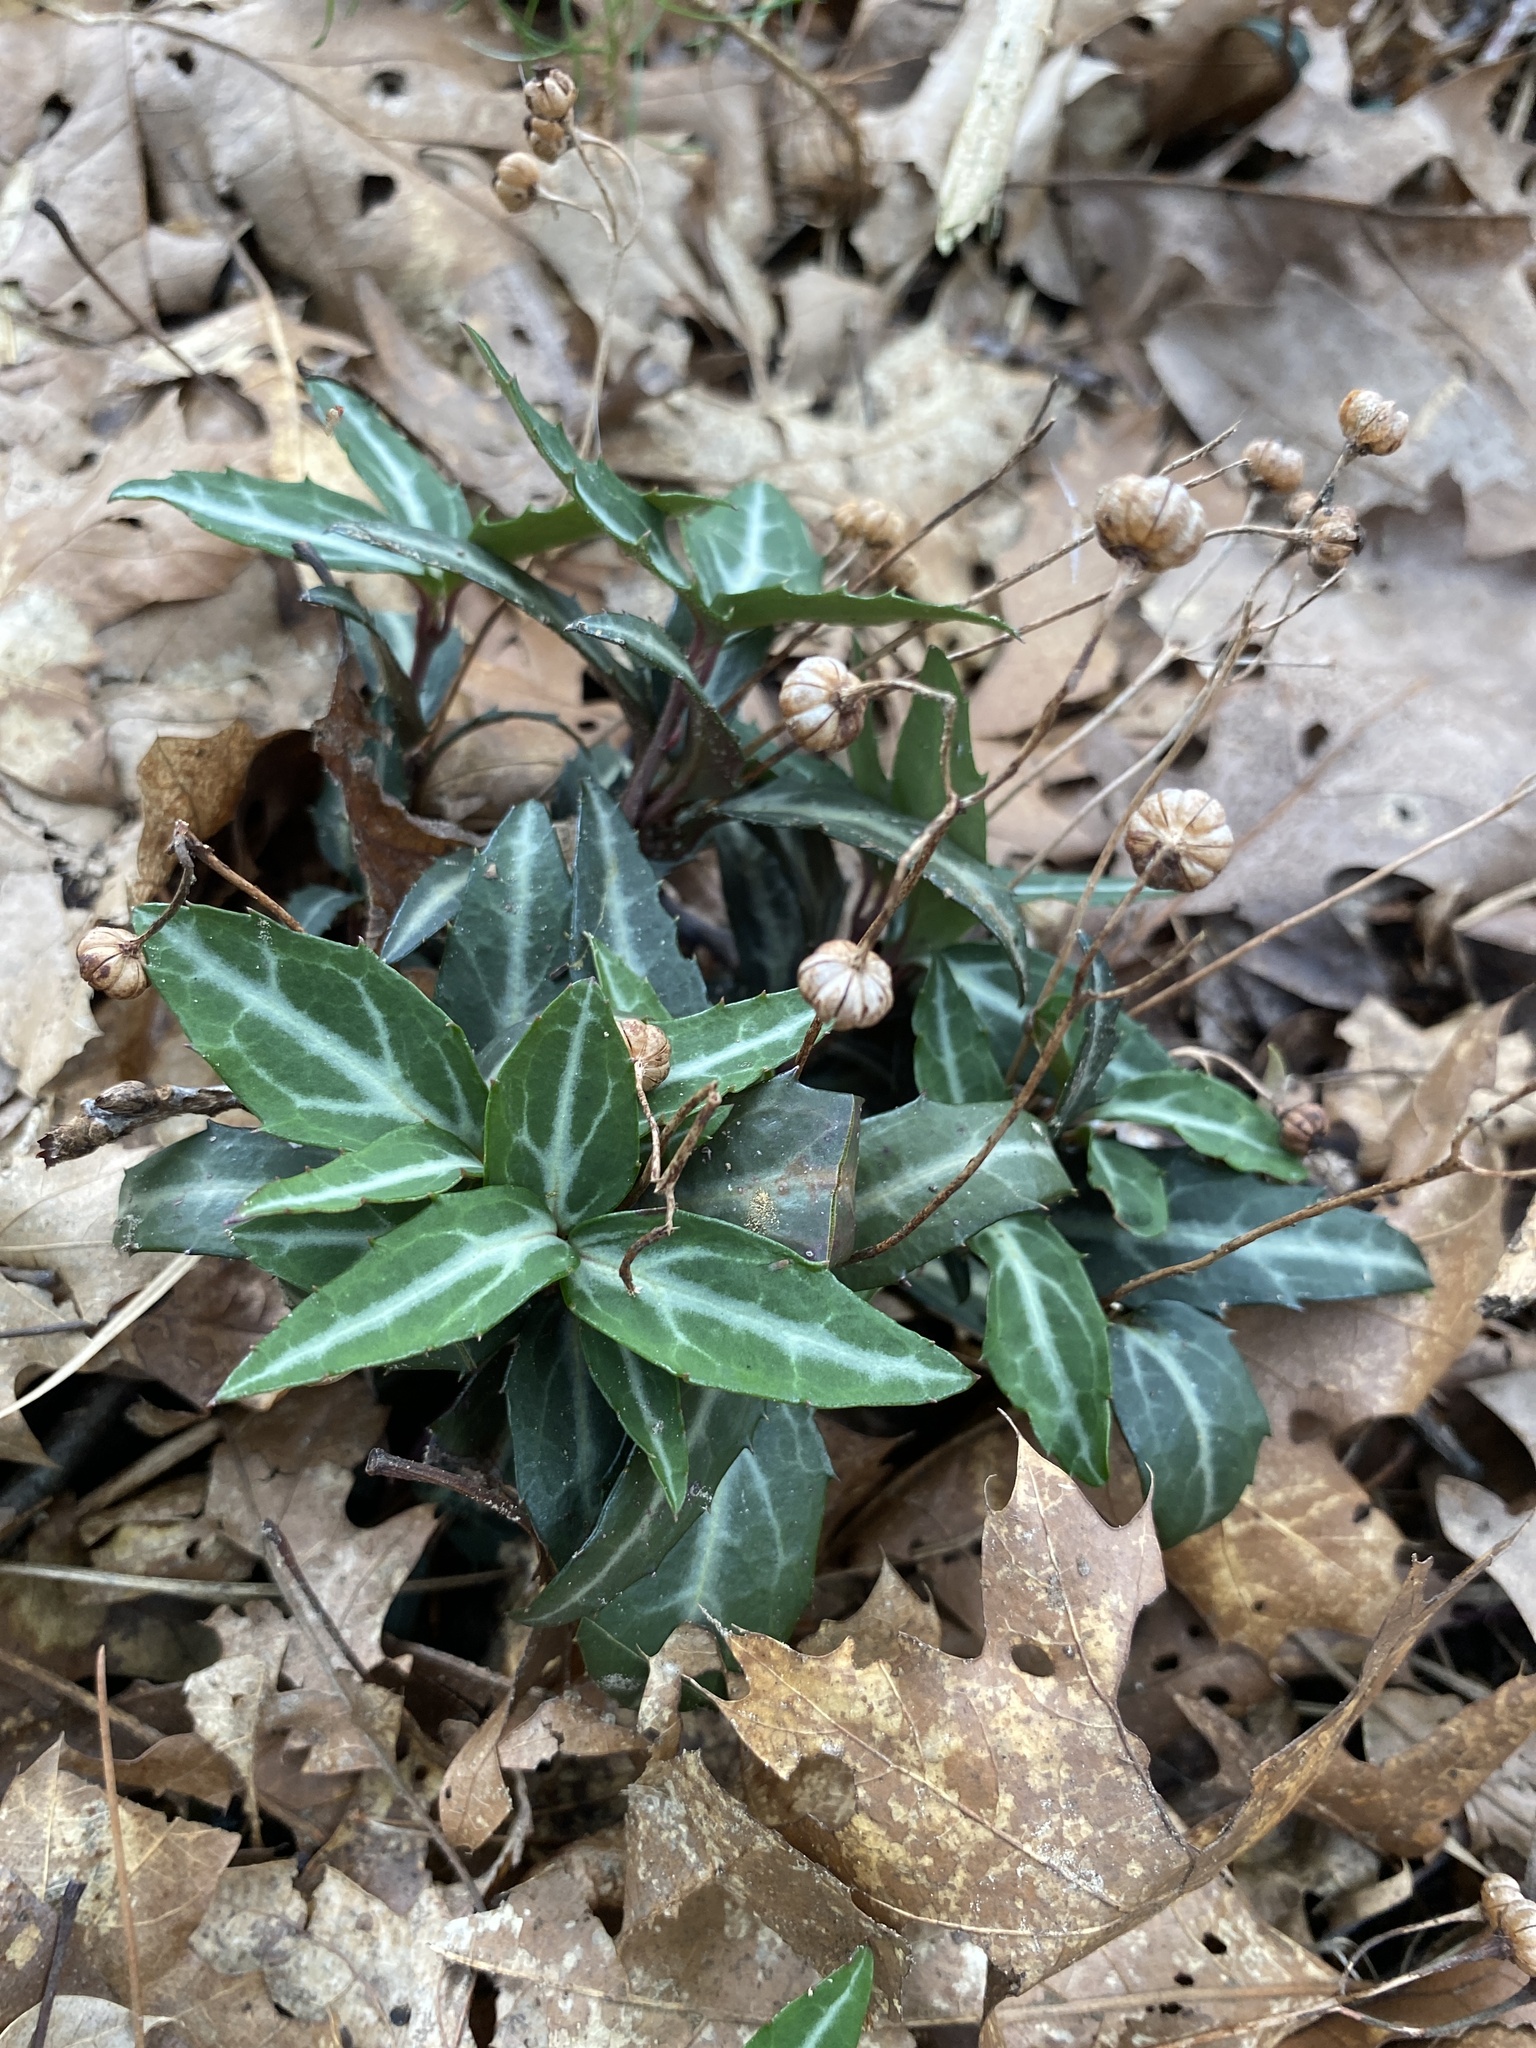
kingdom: Plantae
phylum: Tracheophyta
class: Magnoliopsida
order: Ericales
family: Ericaceae
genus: Chimaphila
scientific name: Chimaphila maculata
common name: Spotted pipsissewa
